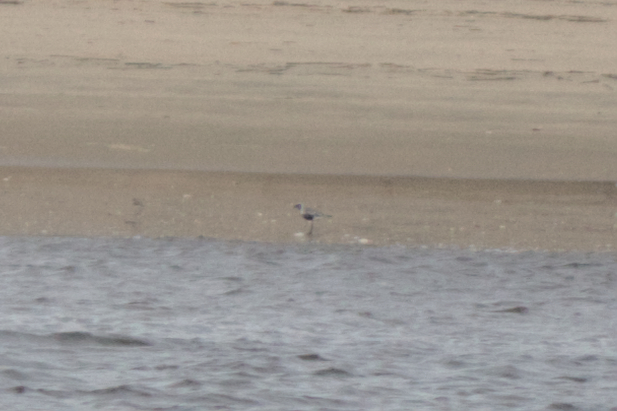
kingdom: Animalia
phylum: Chordata
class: Aves
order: Charadriiformes
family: Charadriidae
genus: Pluvialis
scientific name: Pluvialis squatarola
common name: Grey plover
